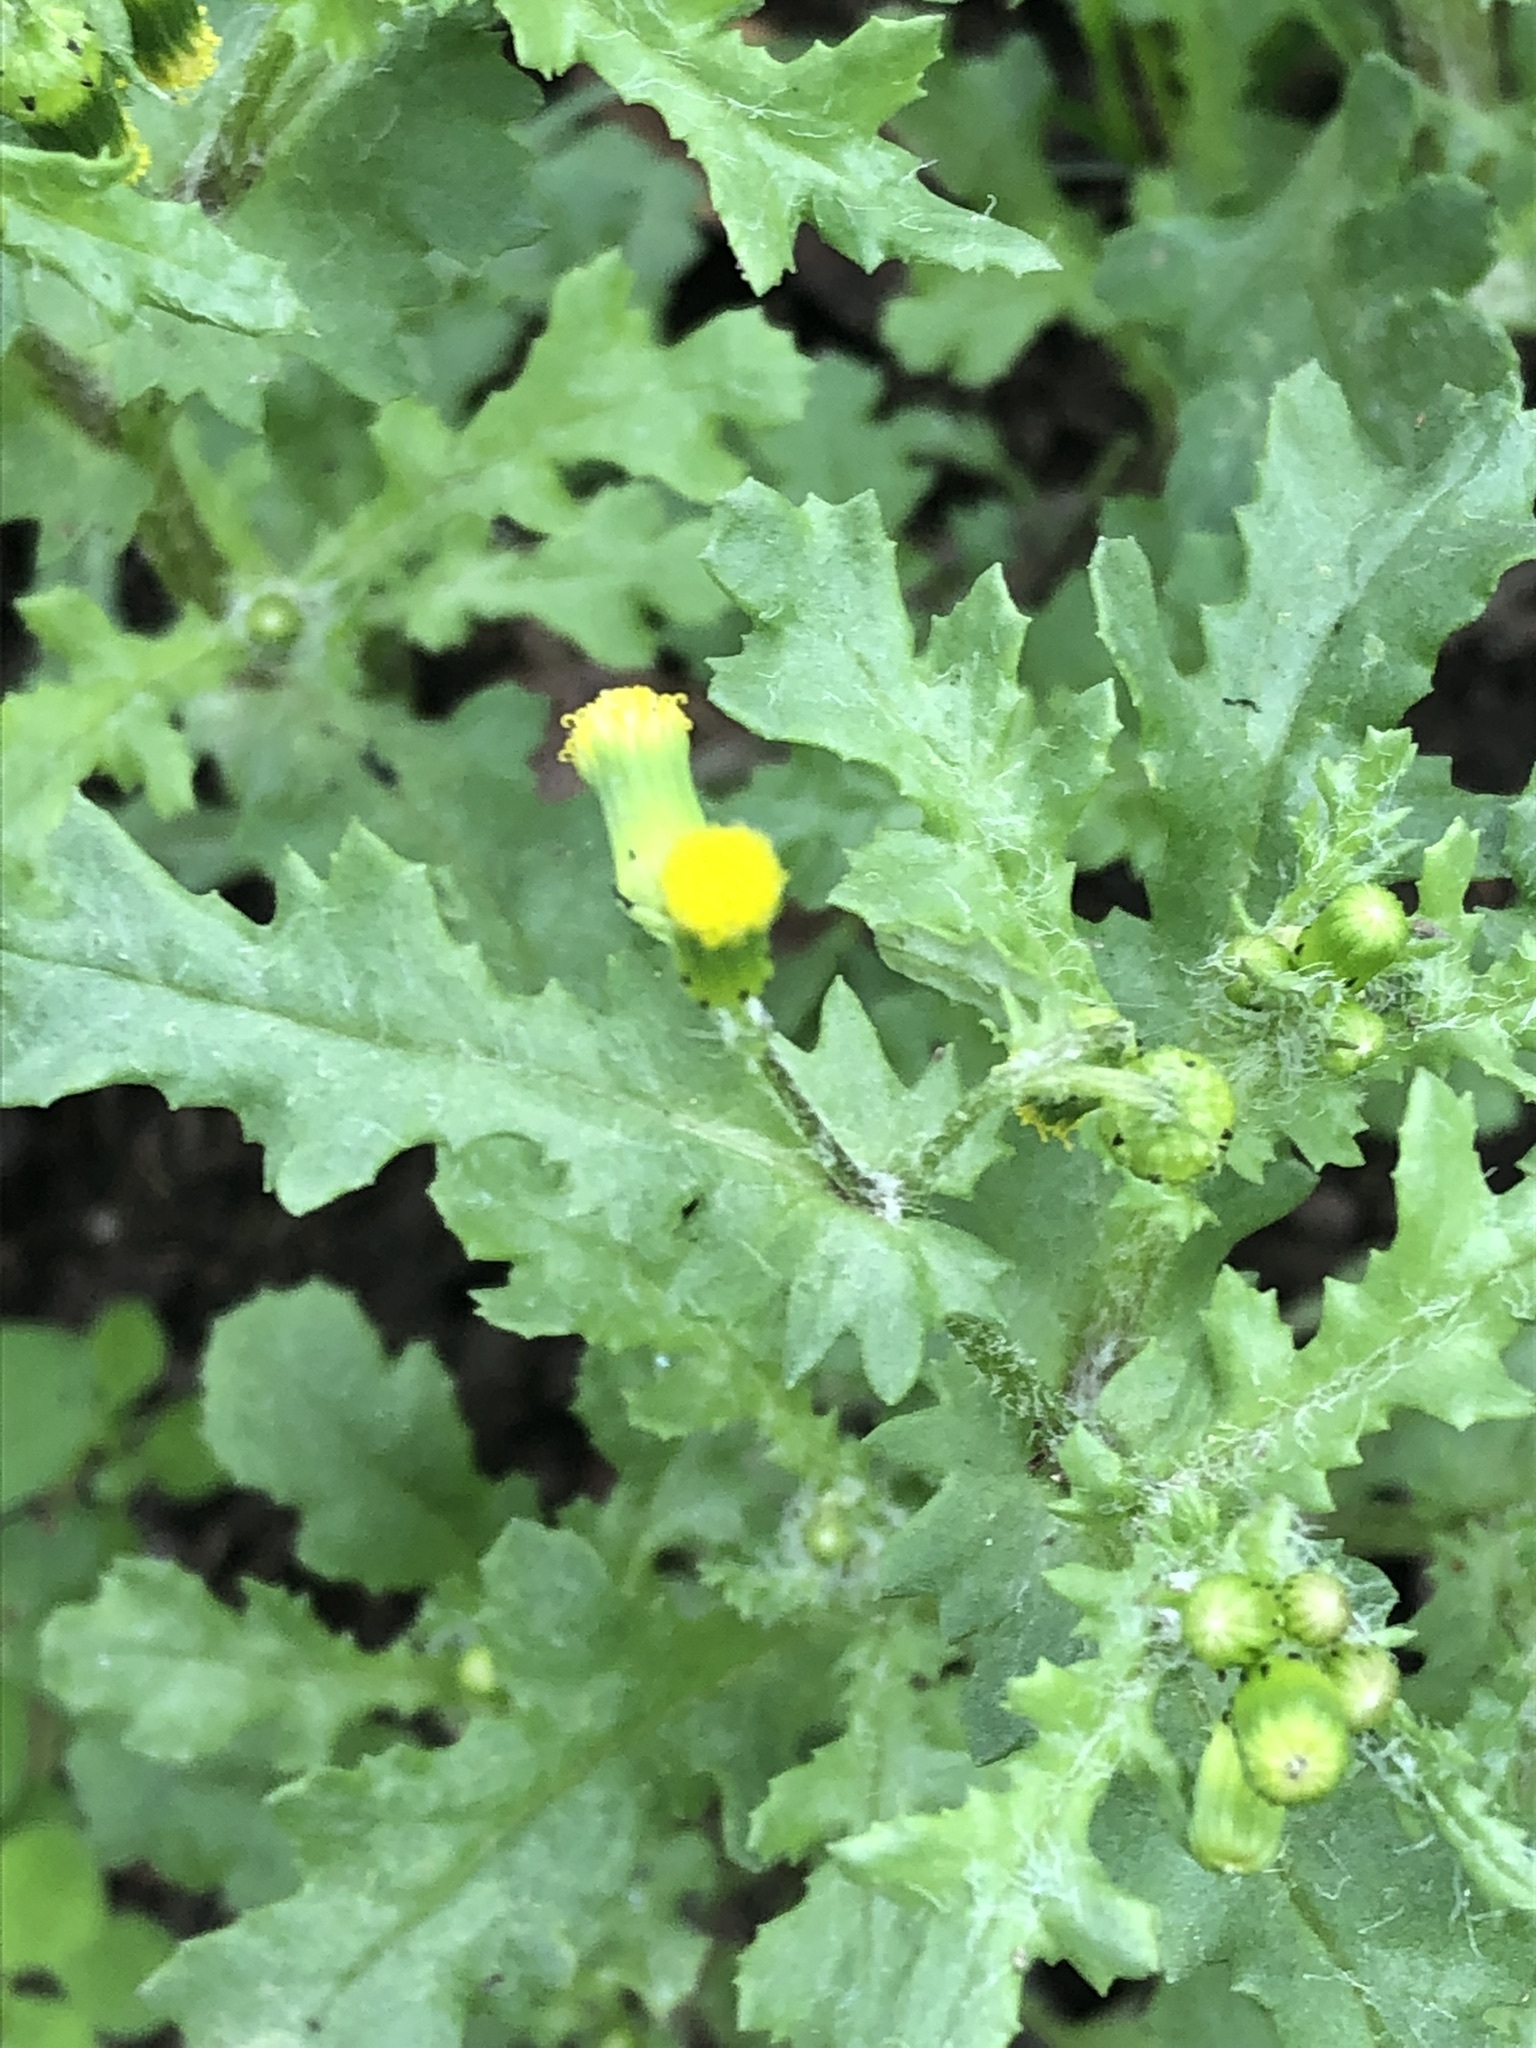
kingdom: Plantae
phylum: Tracheophyta
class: Magnoliopsida
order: Asterales
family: Asteraceae
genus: Senecio
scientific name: Senecio vulgaris
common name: Old-man-in-the-spring
